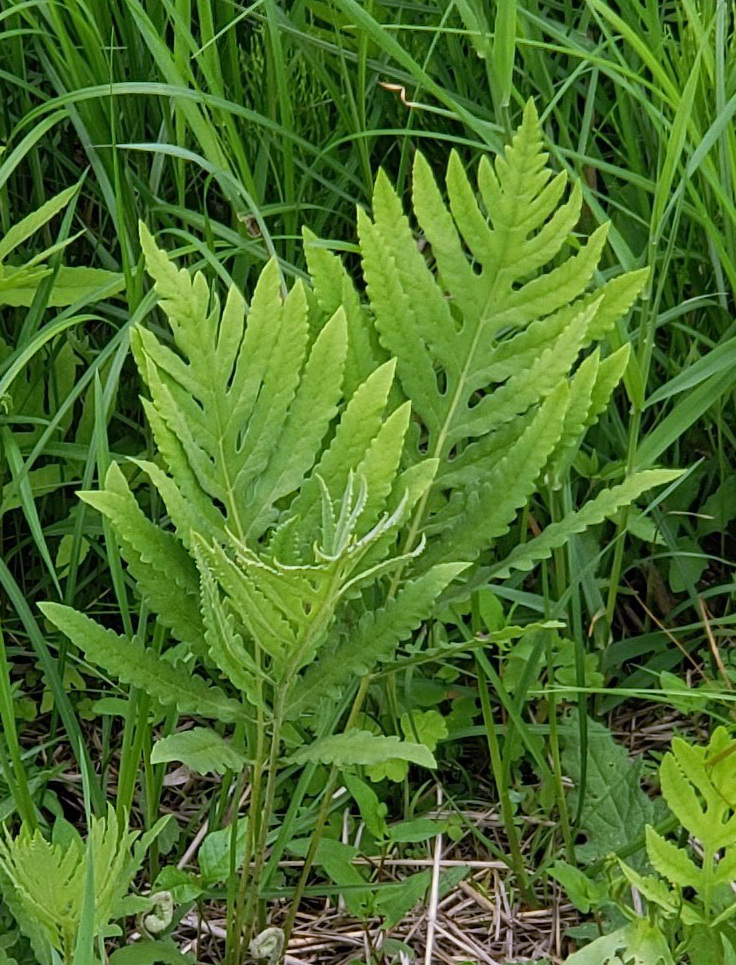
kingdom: Plantae
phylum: Tracheophyta
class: Polypodiopsida
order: Polypodiales
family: Onocleaceae
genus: Onoclea
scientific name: Onoclea sensibilis
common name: Sensitive fern
